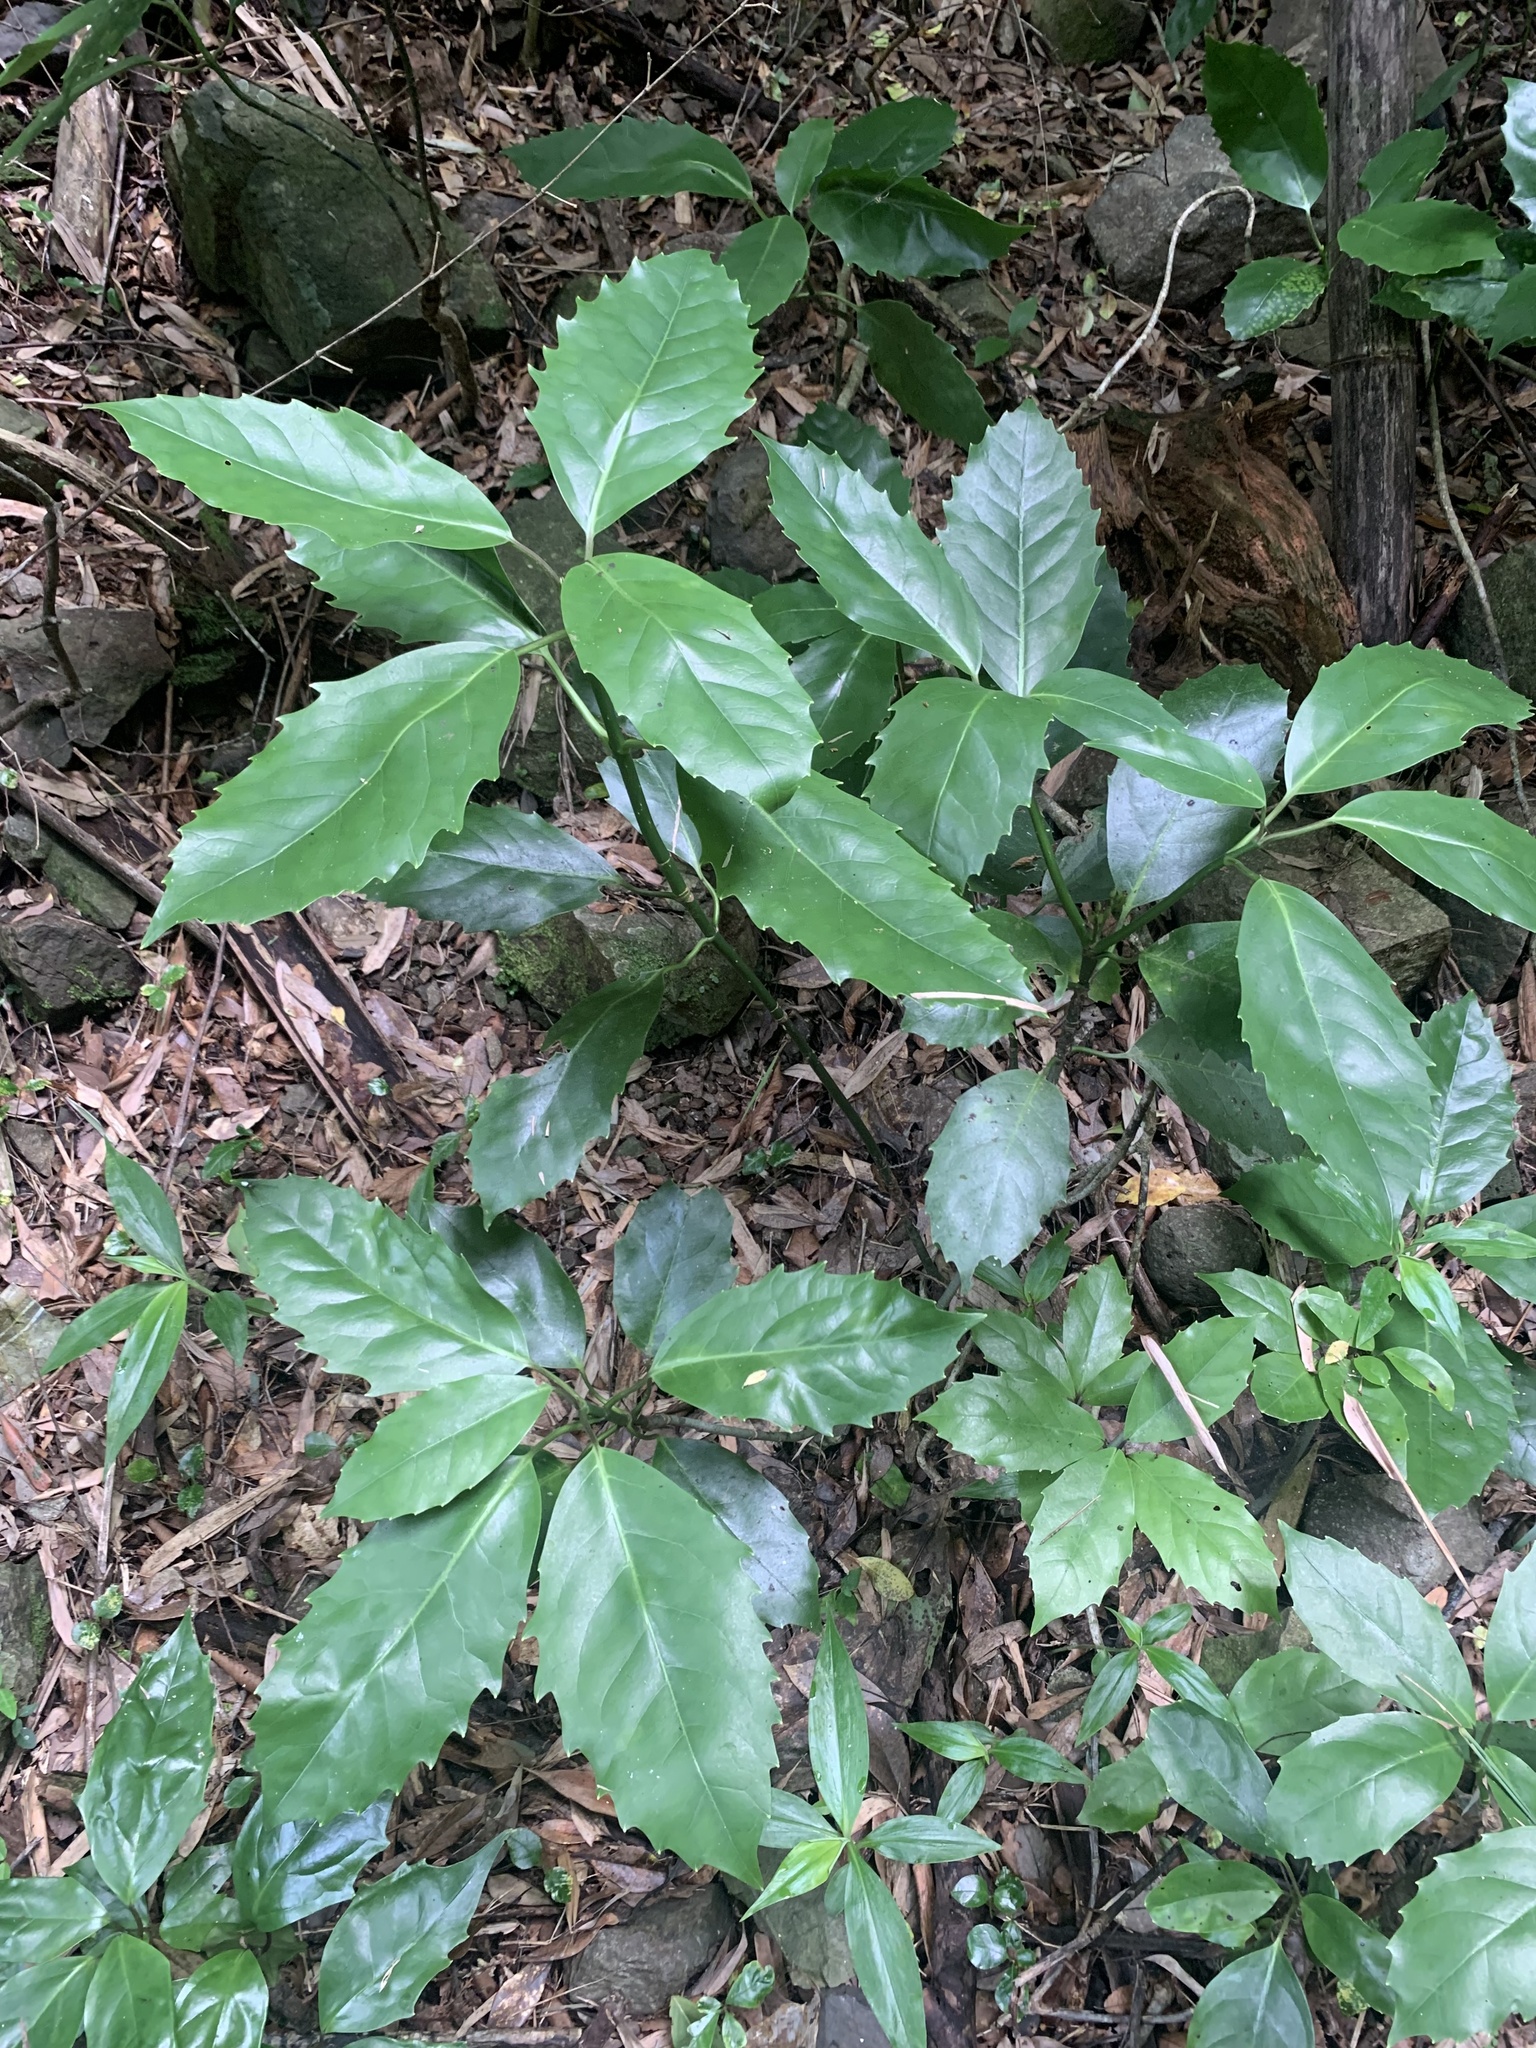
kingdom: Plantae
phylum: Tracheophyta
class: Magnoliopsida
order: Garryales
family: Garryaceae
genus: Aucuba
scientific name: Aucuba japonica
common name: Spotted-laurel
